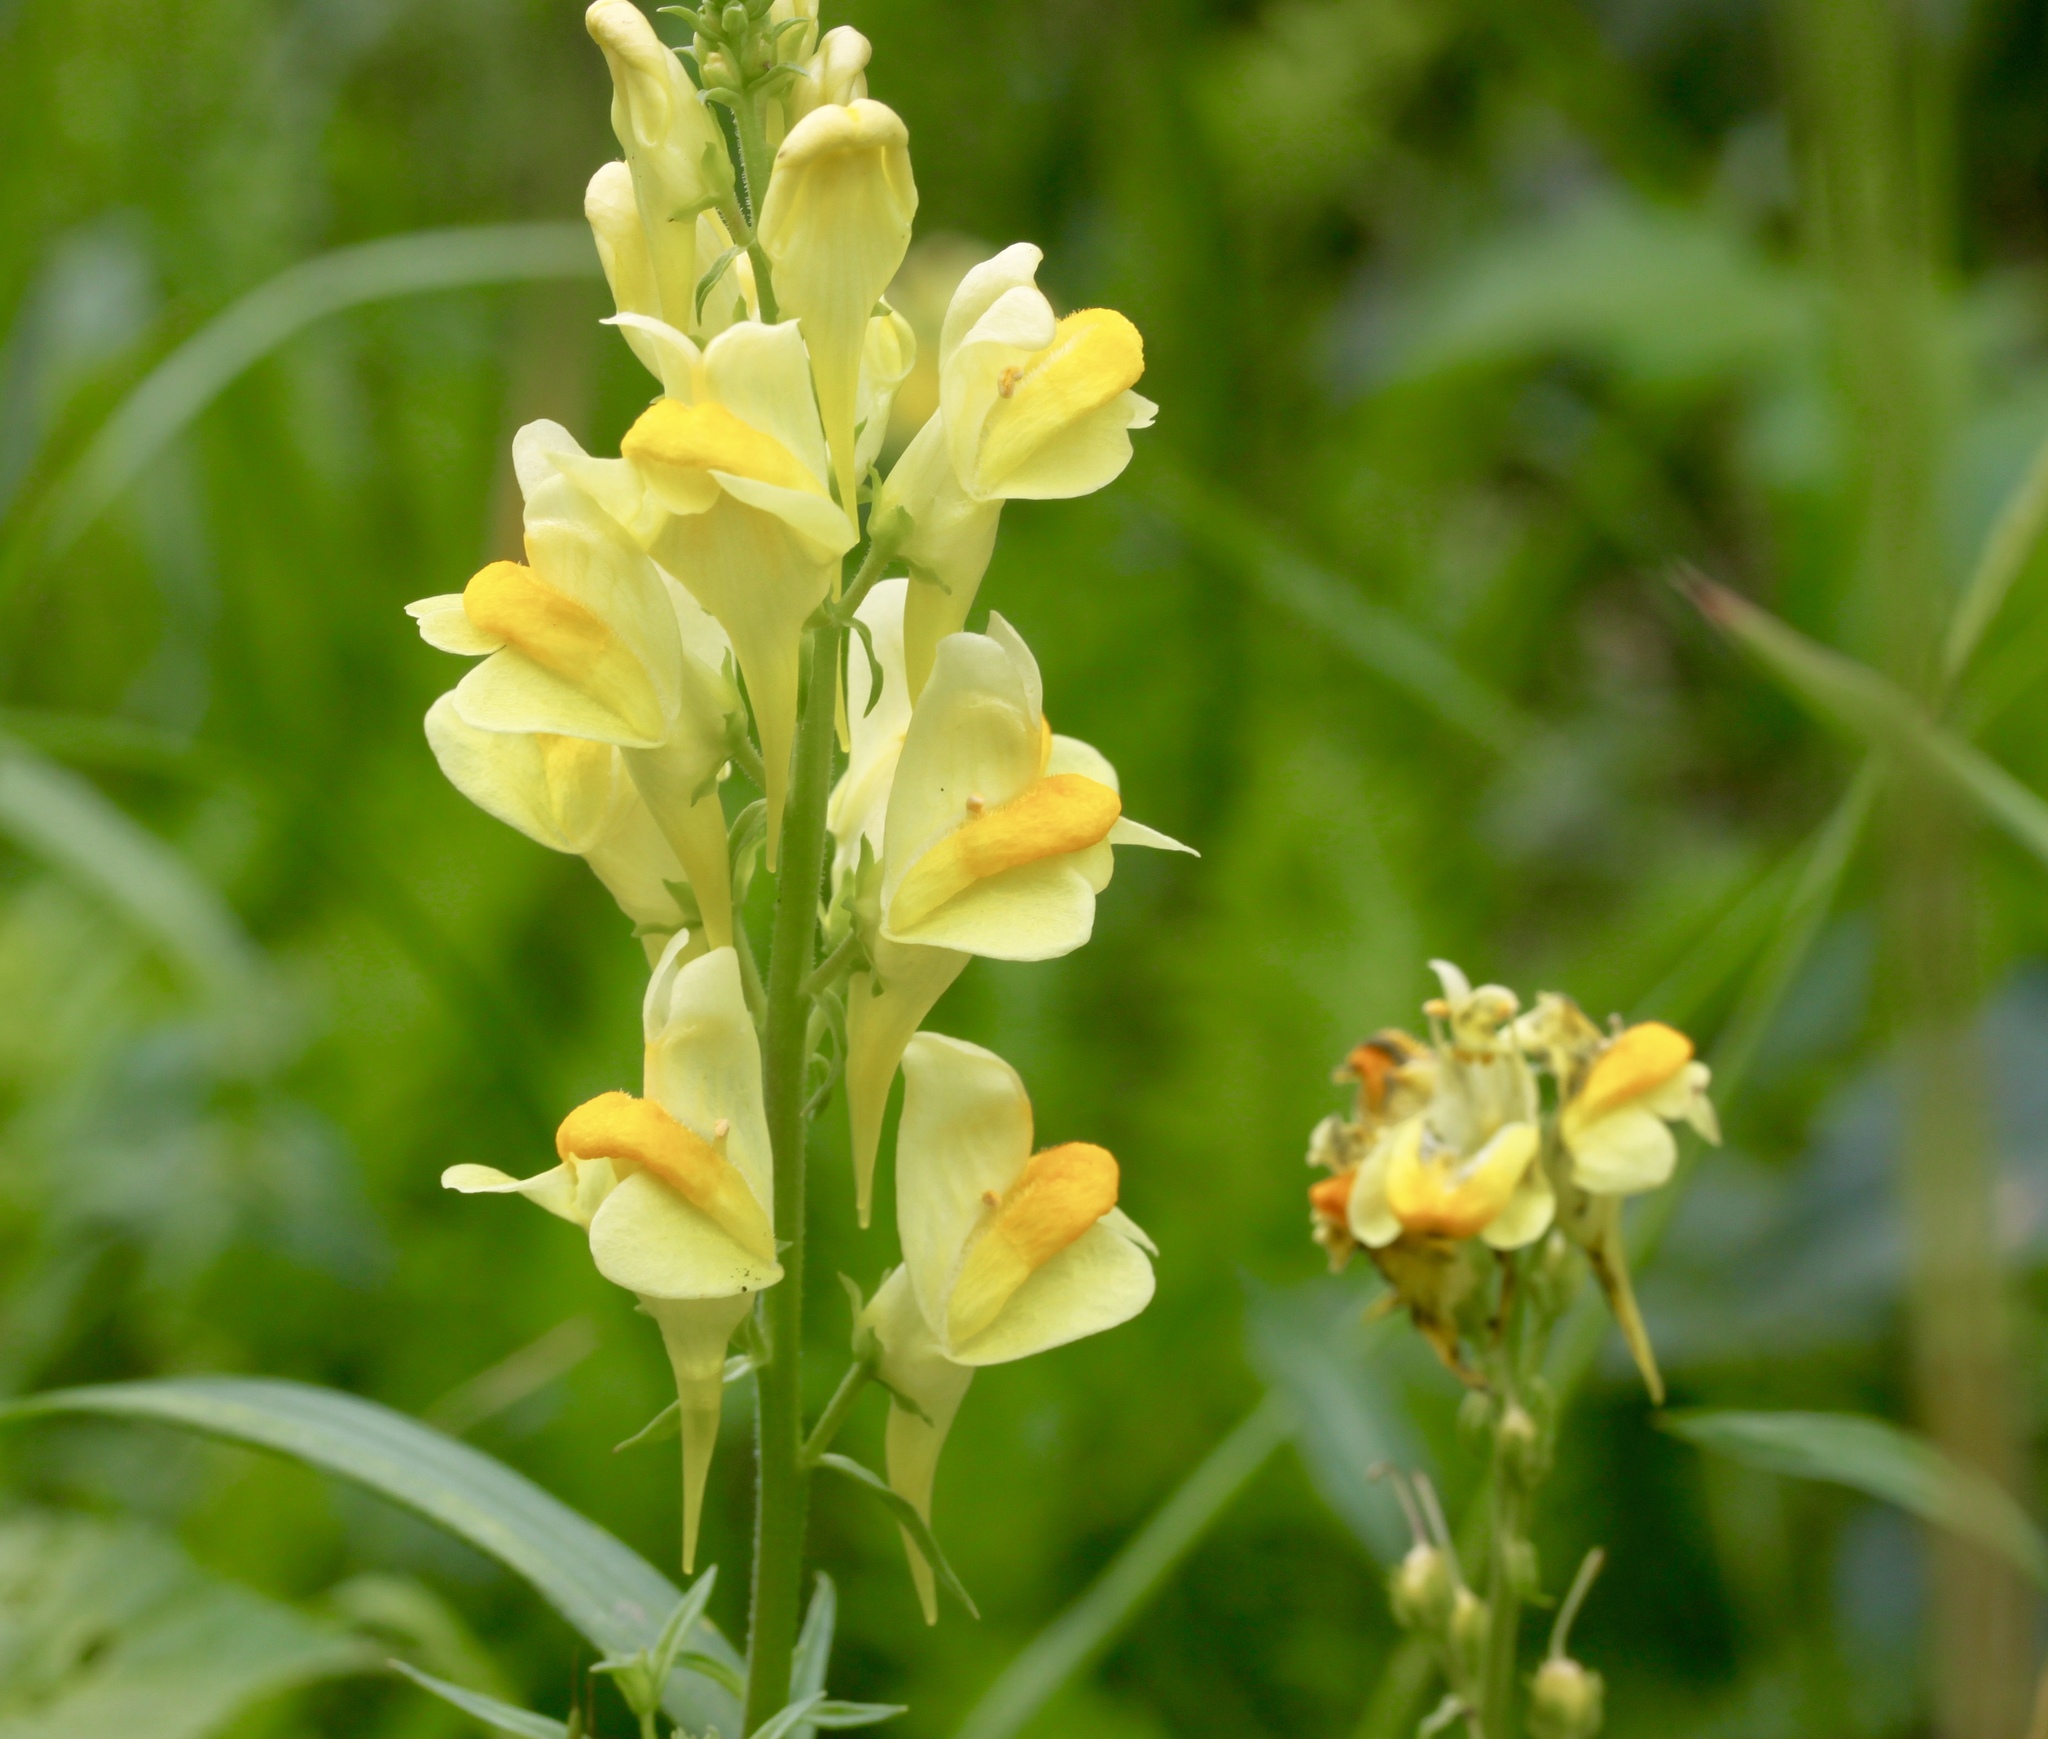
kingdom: Plantae
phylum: Tracheophyta
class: Magnoliopsida
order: Lamiales
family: Plantaginaceae
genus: Linaria
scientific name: Linaria vulgaris
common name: Butter and eggs
